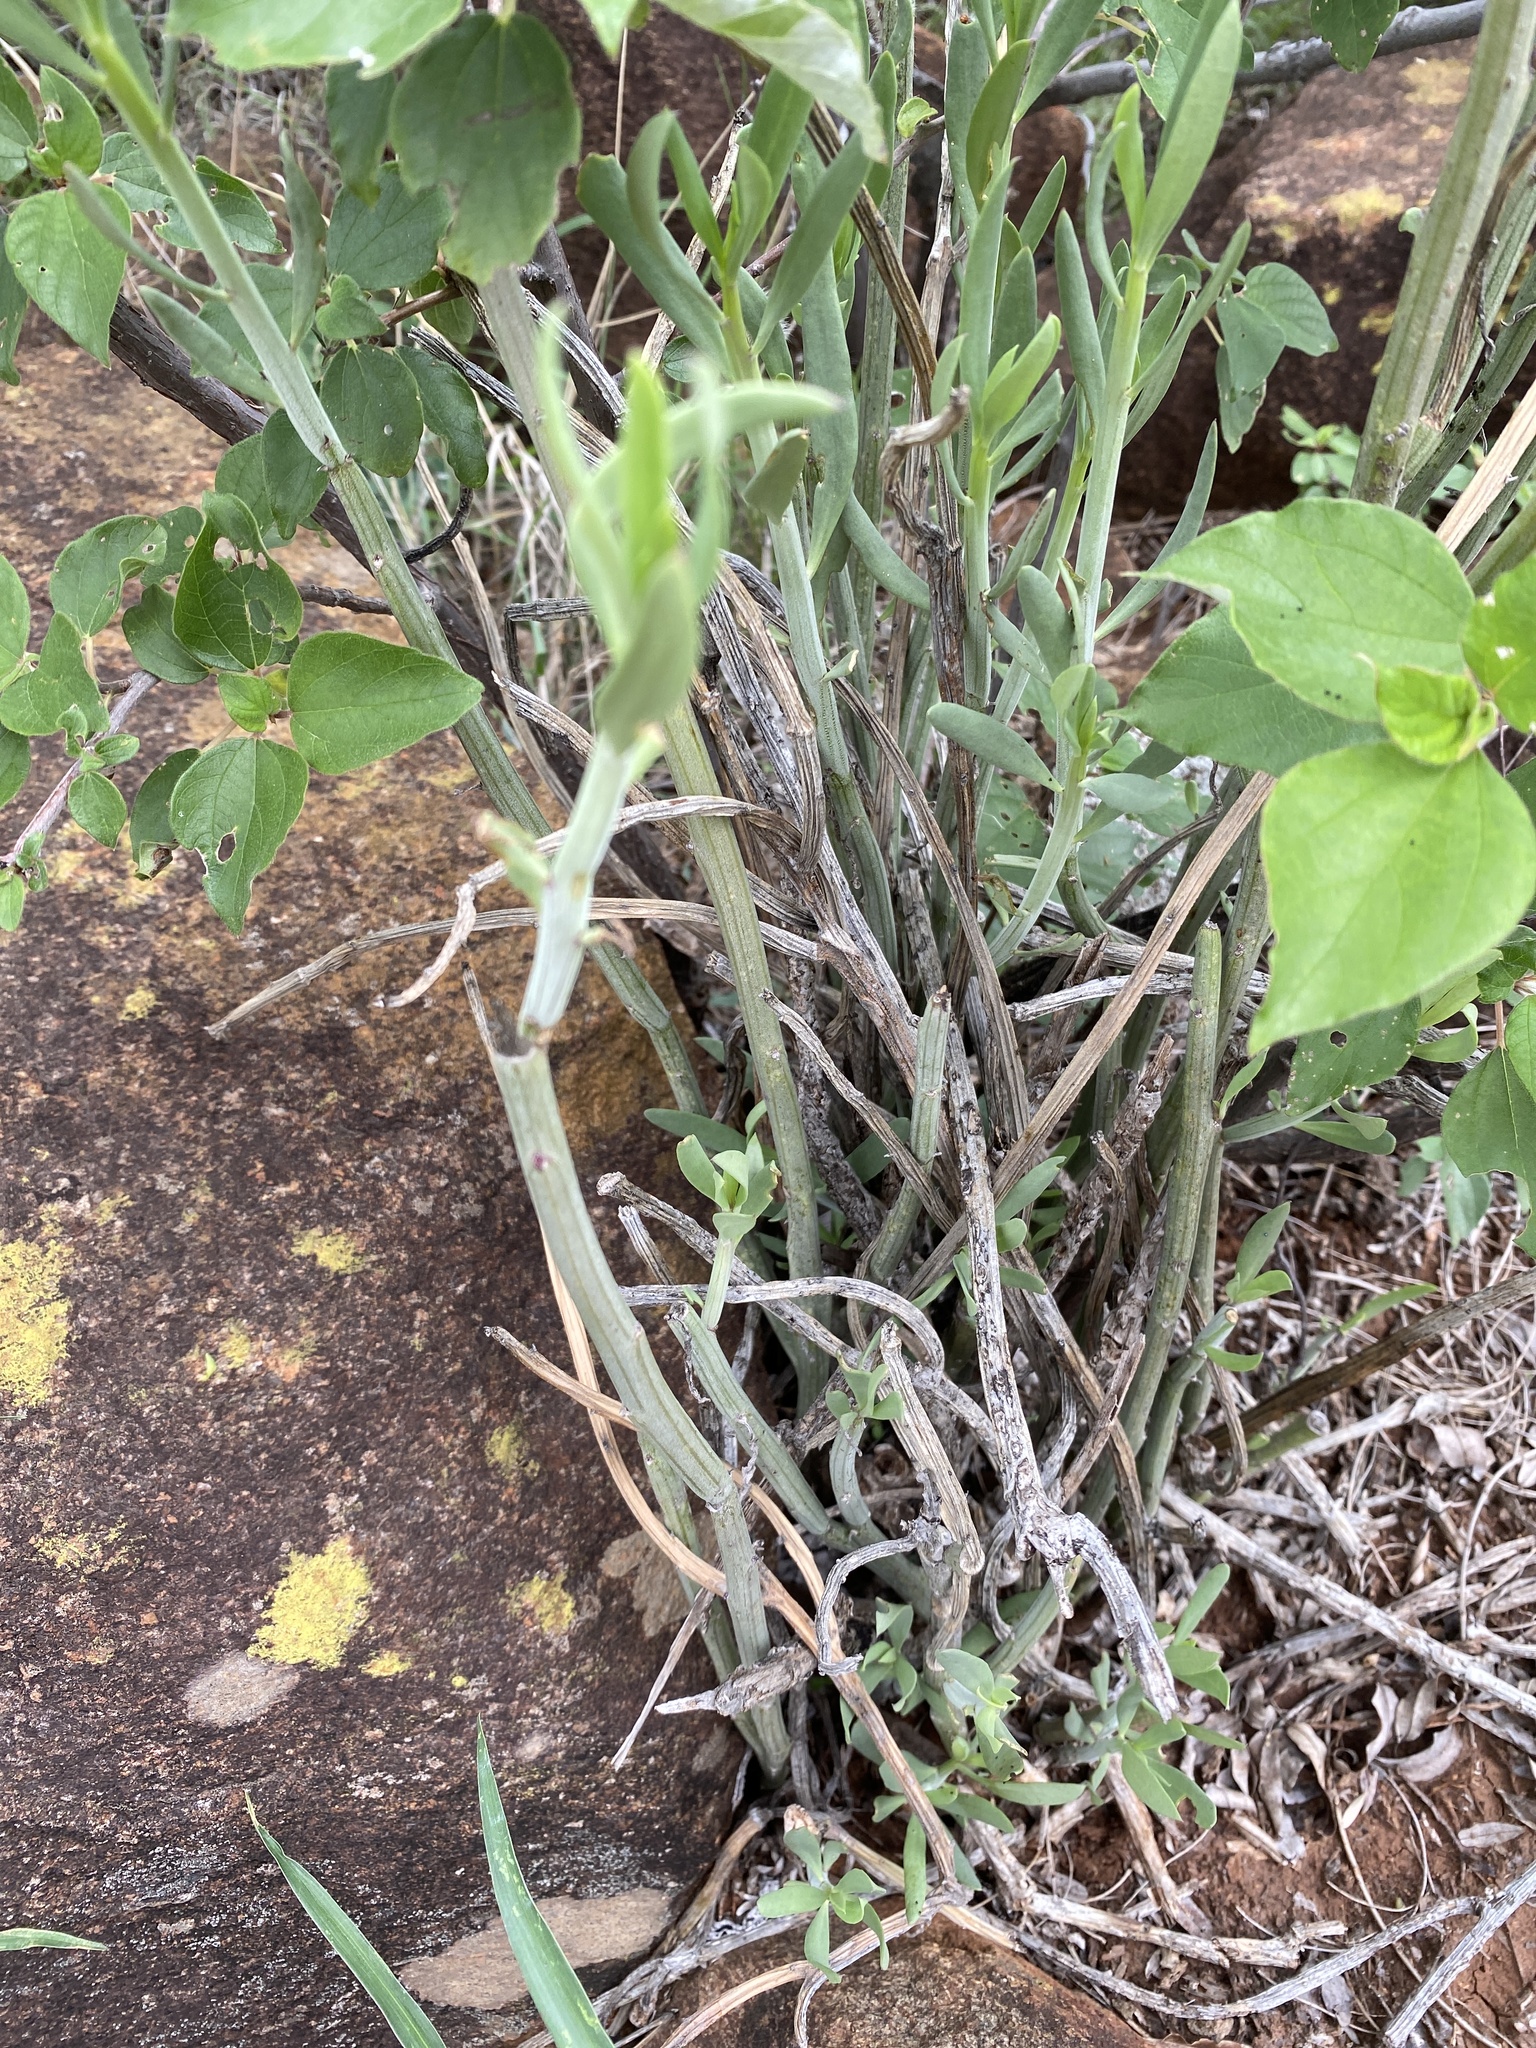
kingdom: Plantae
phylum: Tracheophyta
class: Magnoliopsida
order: Asterales
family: Asteraceae
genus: Curio
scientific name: Curio avasimontanus
